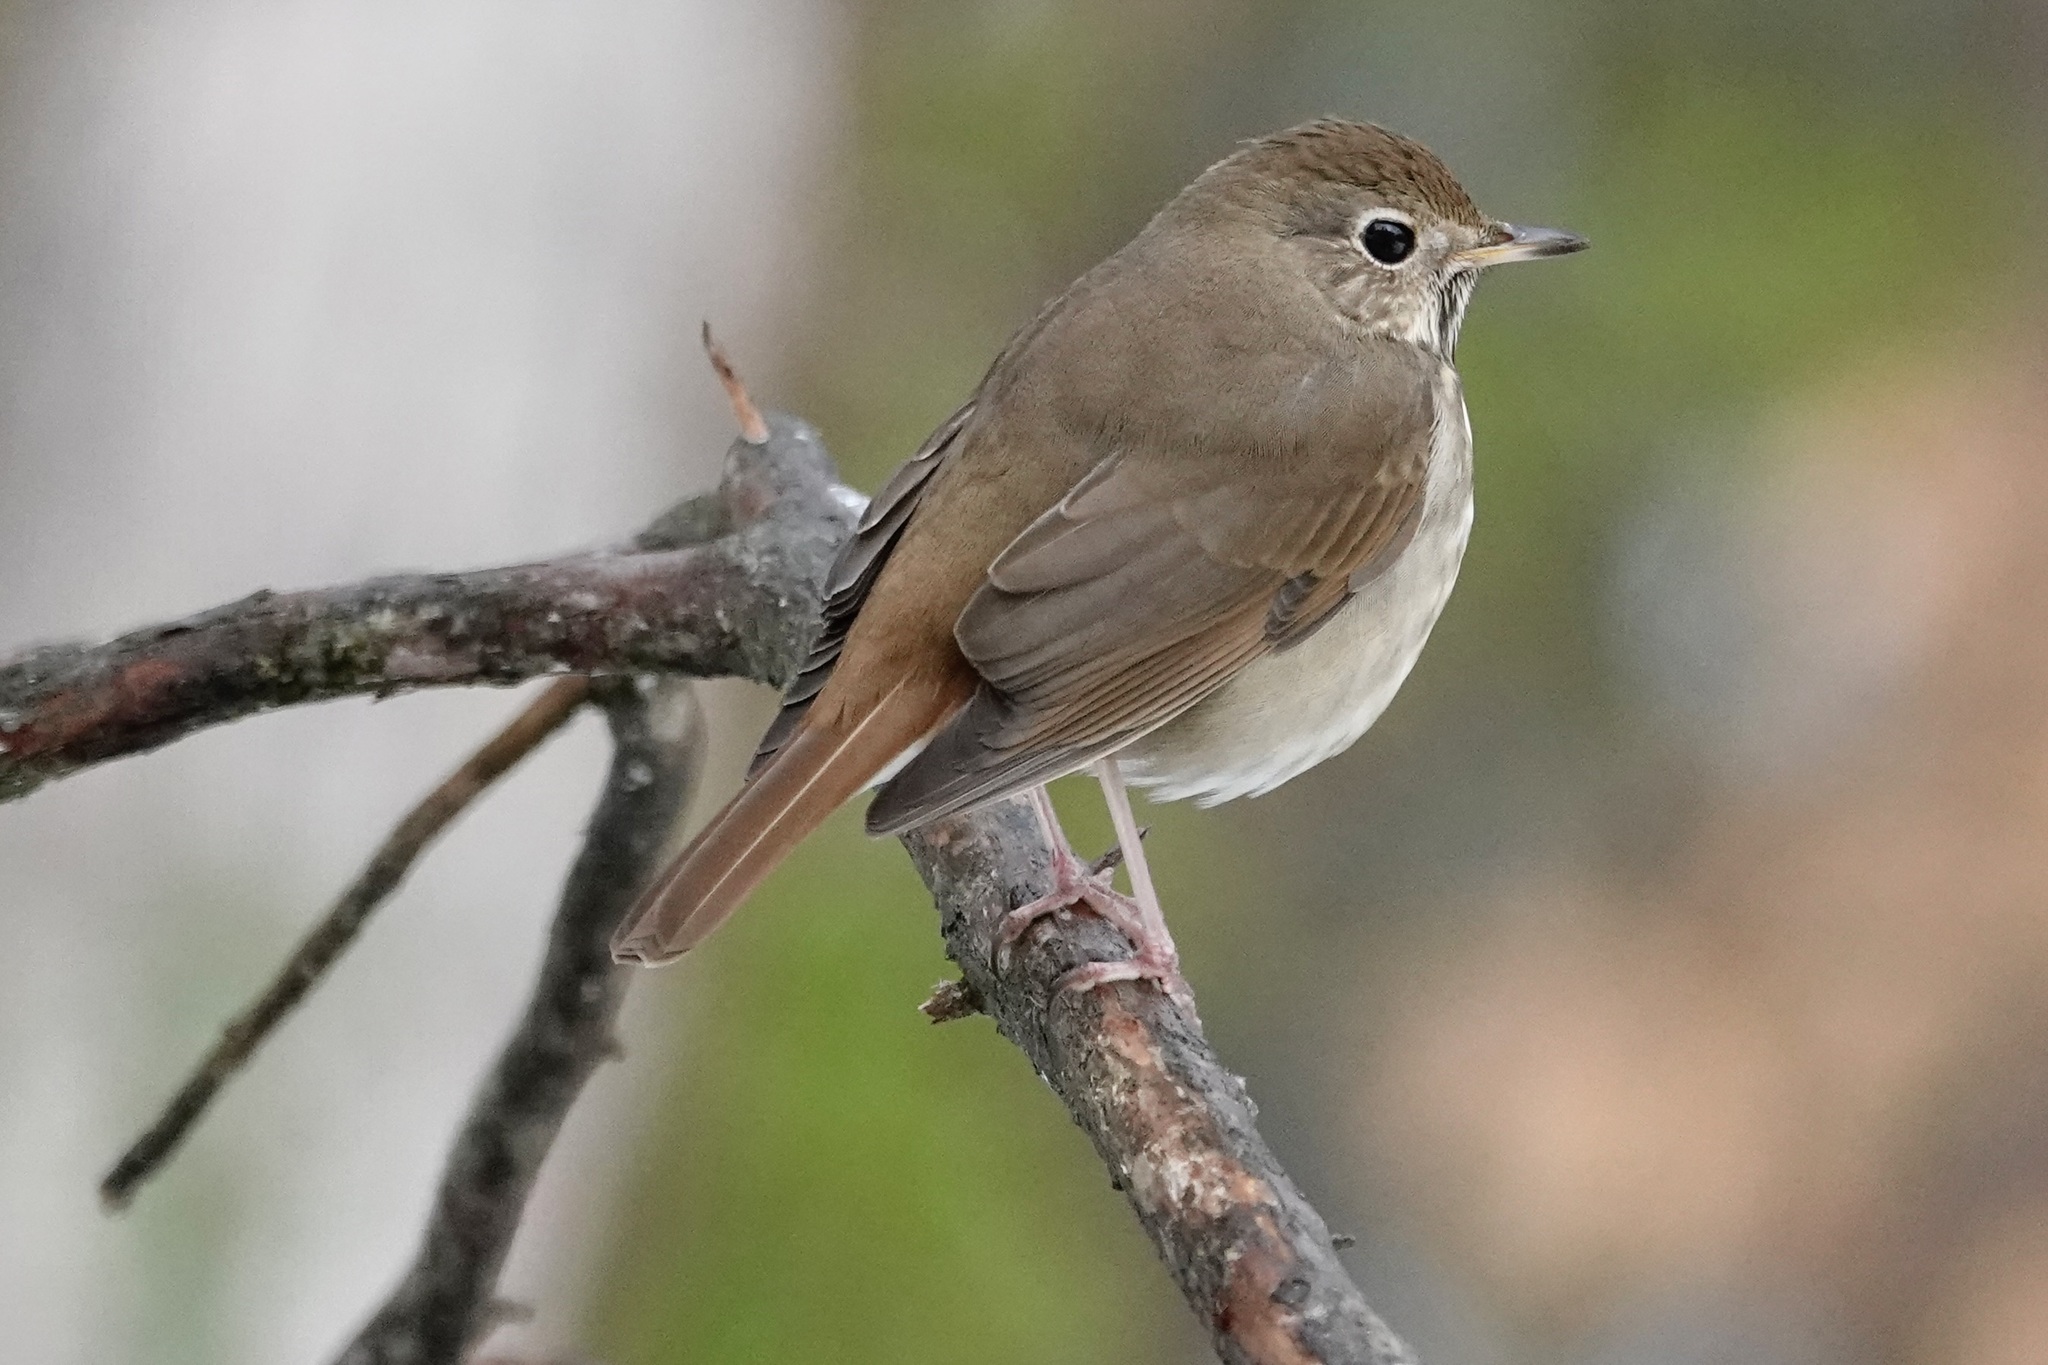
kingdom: Animalia
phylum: Chordata
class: Aves
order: Passeriformes
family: Turdidae
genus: Catharus
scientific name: Catharus guttatus
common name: Hermit thrush
